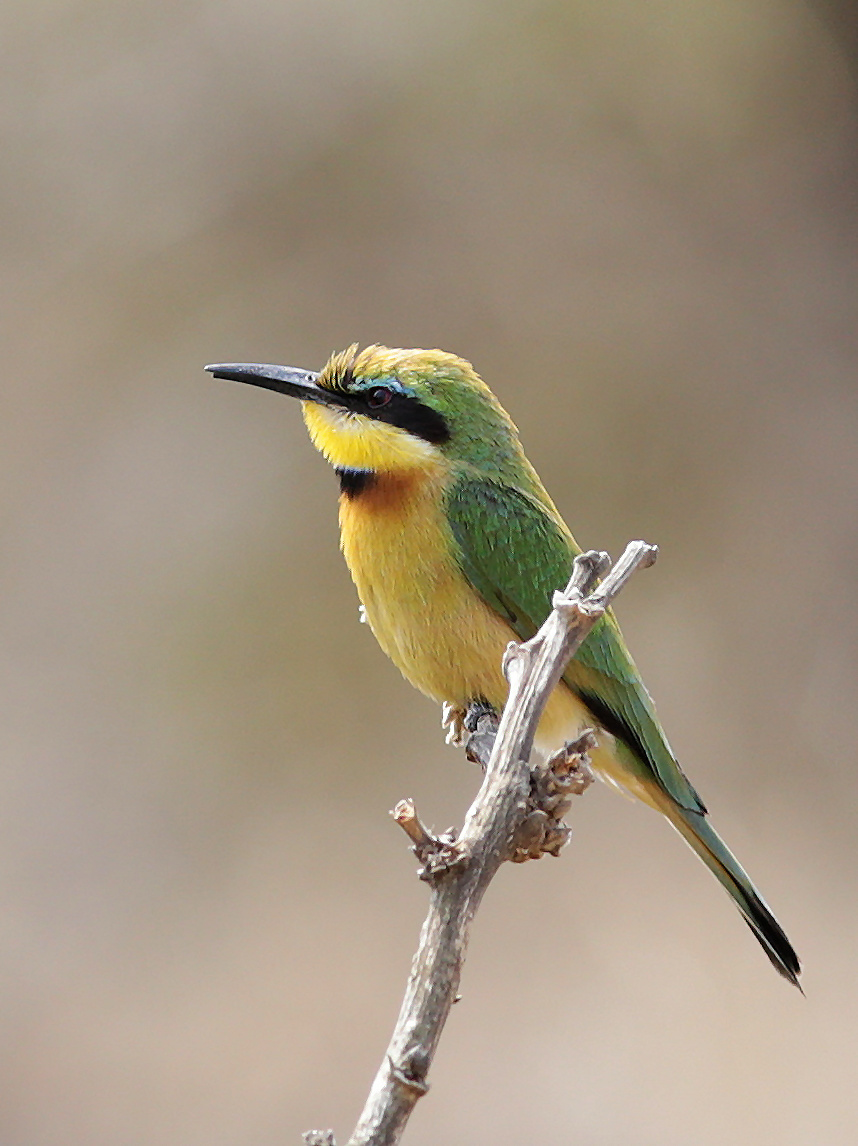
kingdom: Animalia
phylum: Chordata
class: Aves
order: Coraciiformes
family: Meropidae
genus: Merops
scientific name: Merops pusillus
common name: Little bee-eater
